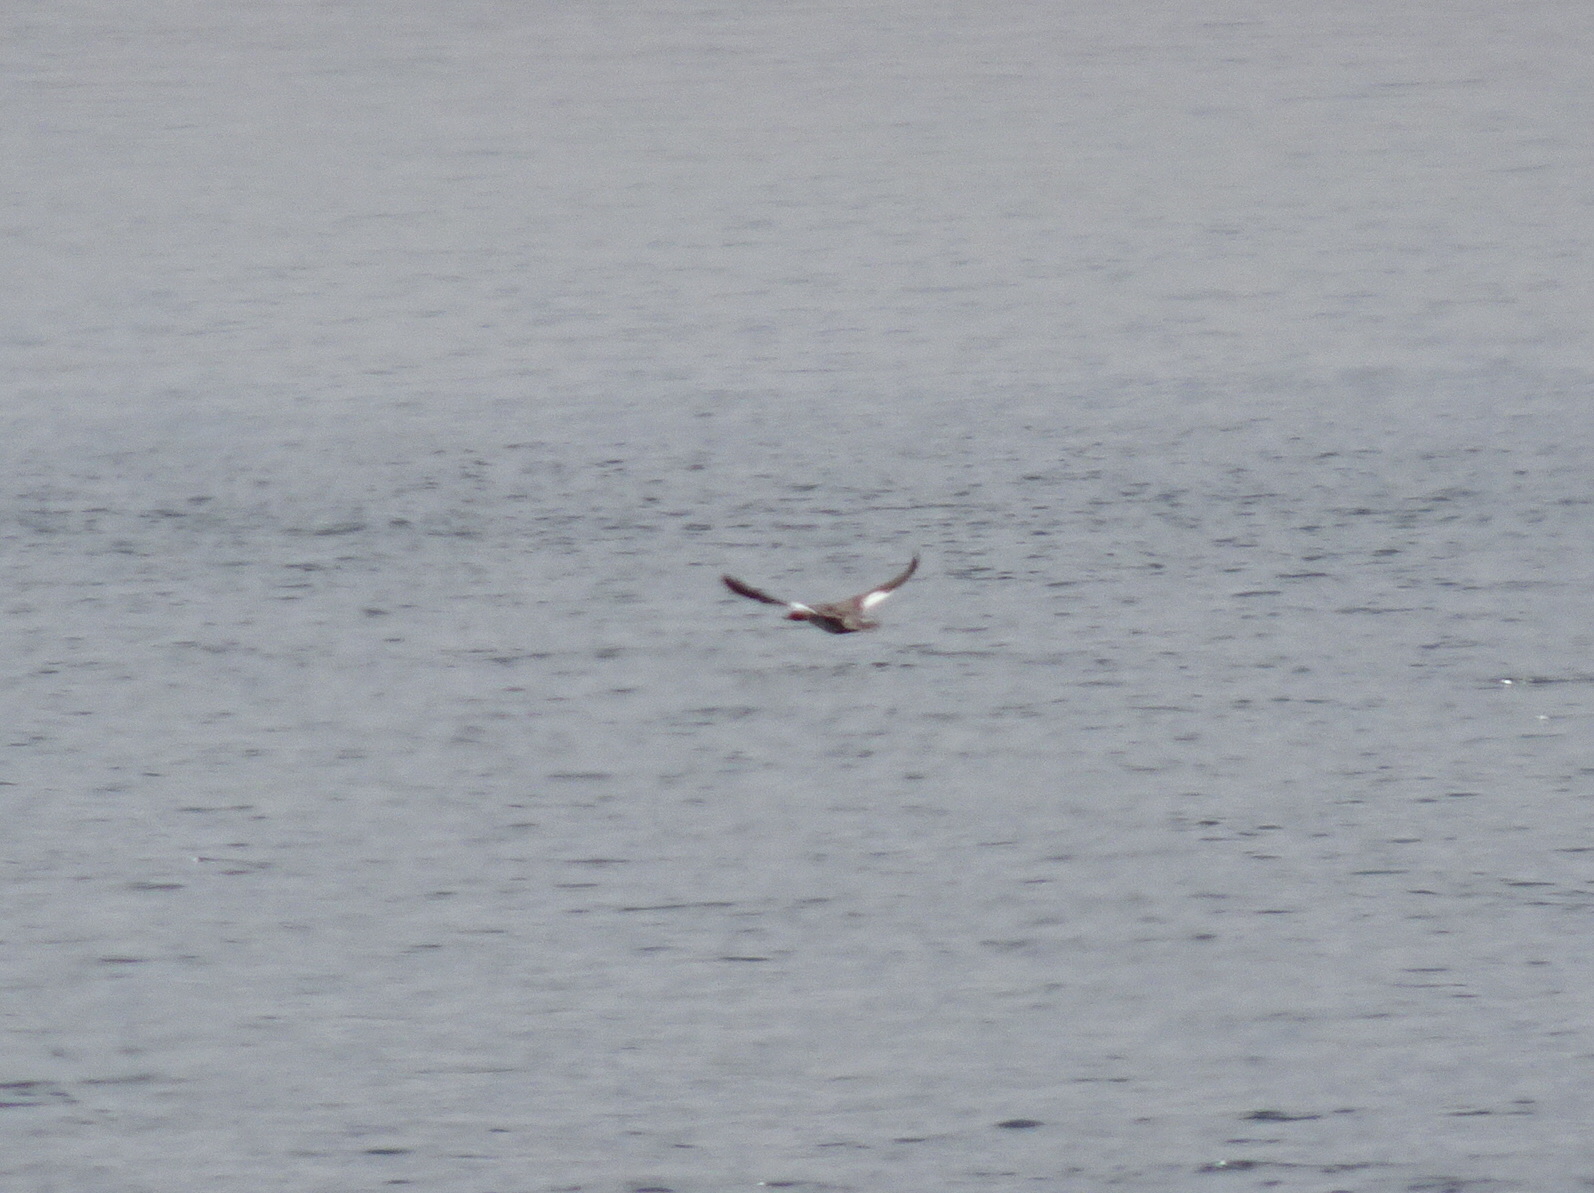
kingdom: Animalia
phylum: Chordata
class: Aves
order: Anseriformes
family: Anatidae
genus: Mergus
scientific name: Mergus serrator
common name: Red-breasted merganser
